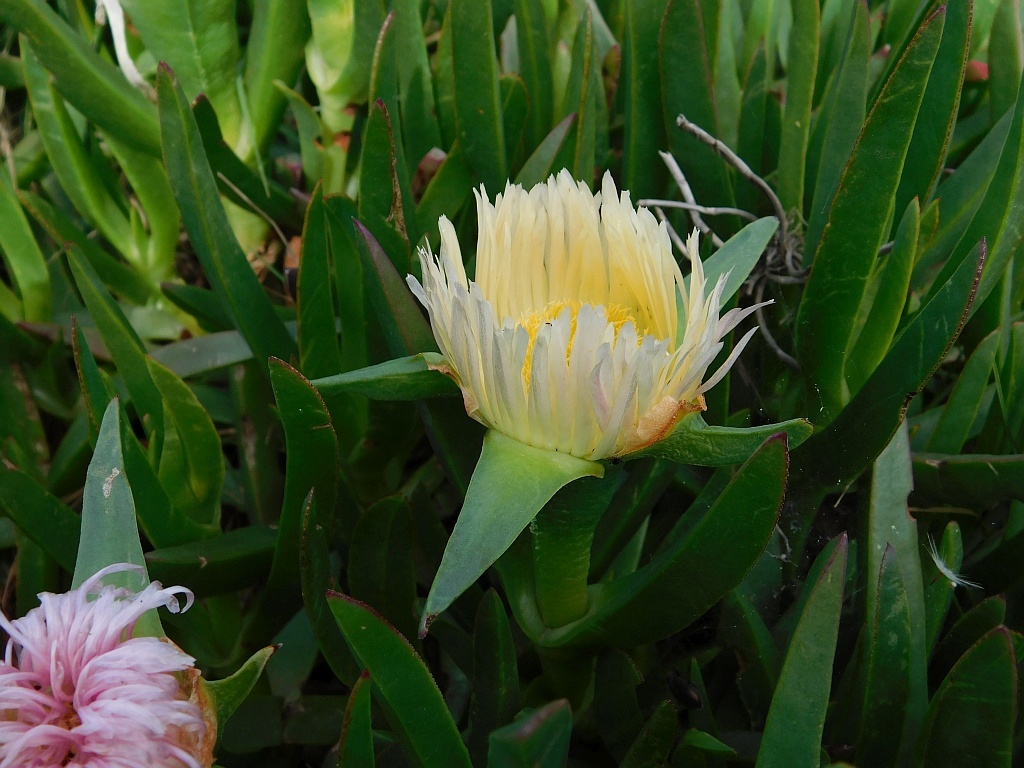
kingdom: Plantae
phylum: Tracheophyta
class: Magnoliopsida
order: Caryophyllales
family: Aizoaceae
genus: Carpobrotus
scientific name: Carpobrotus edulis
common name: Hottentot-fig
